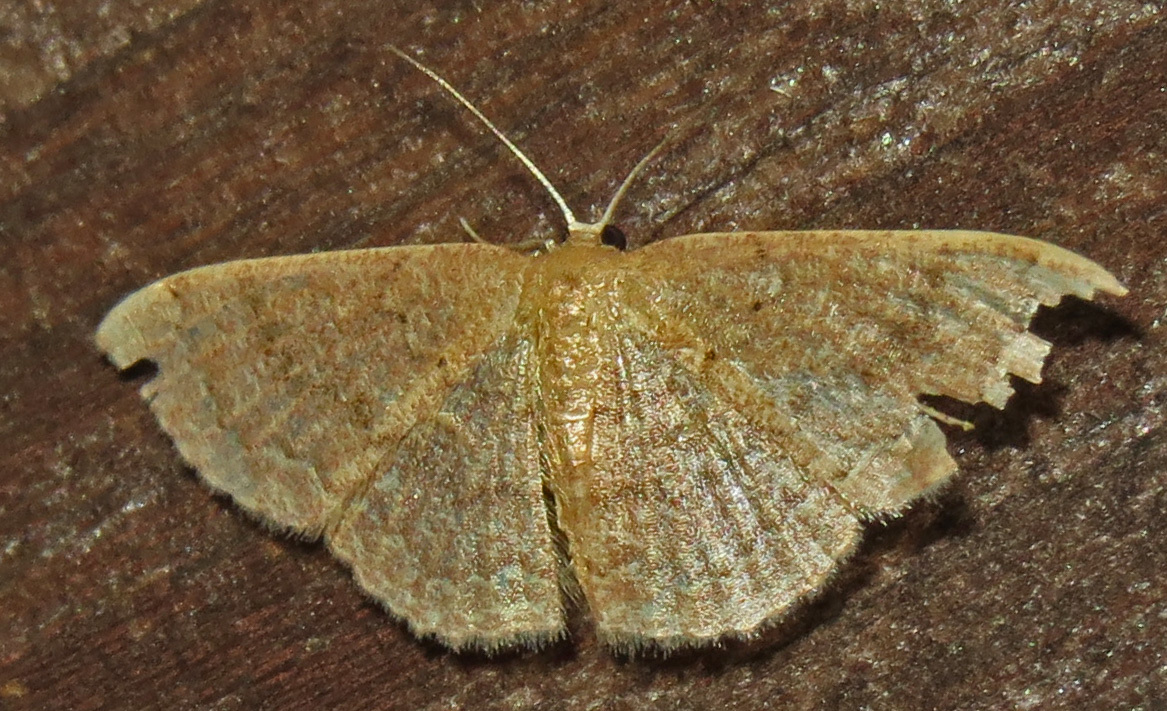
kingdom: Animalia
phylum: Arthropoda
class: Insecta
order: Lepidoptera
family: Geometridae
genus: Pleuroprucha
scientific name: Pleuroprucha insulsaria
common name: Common tan wave
